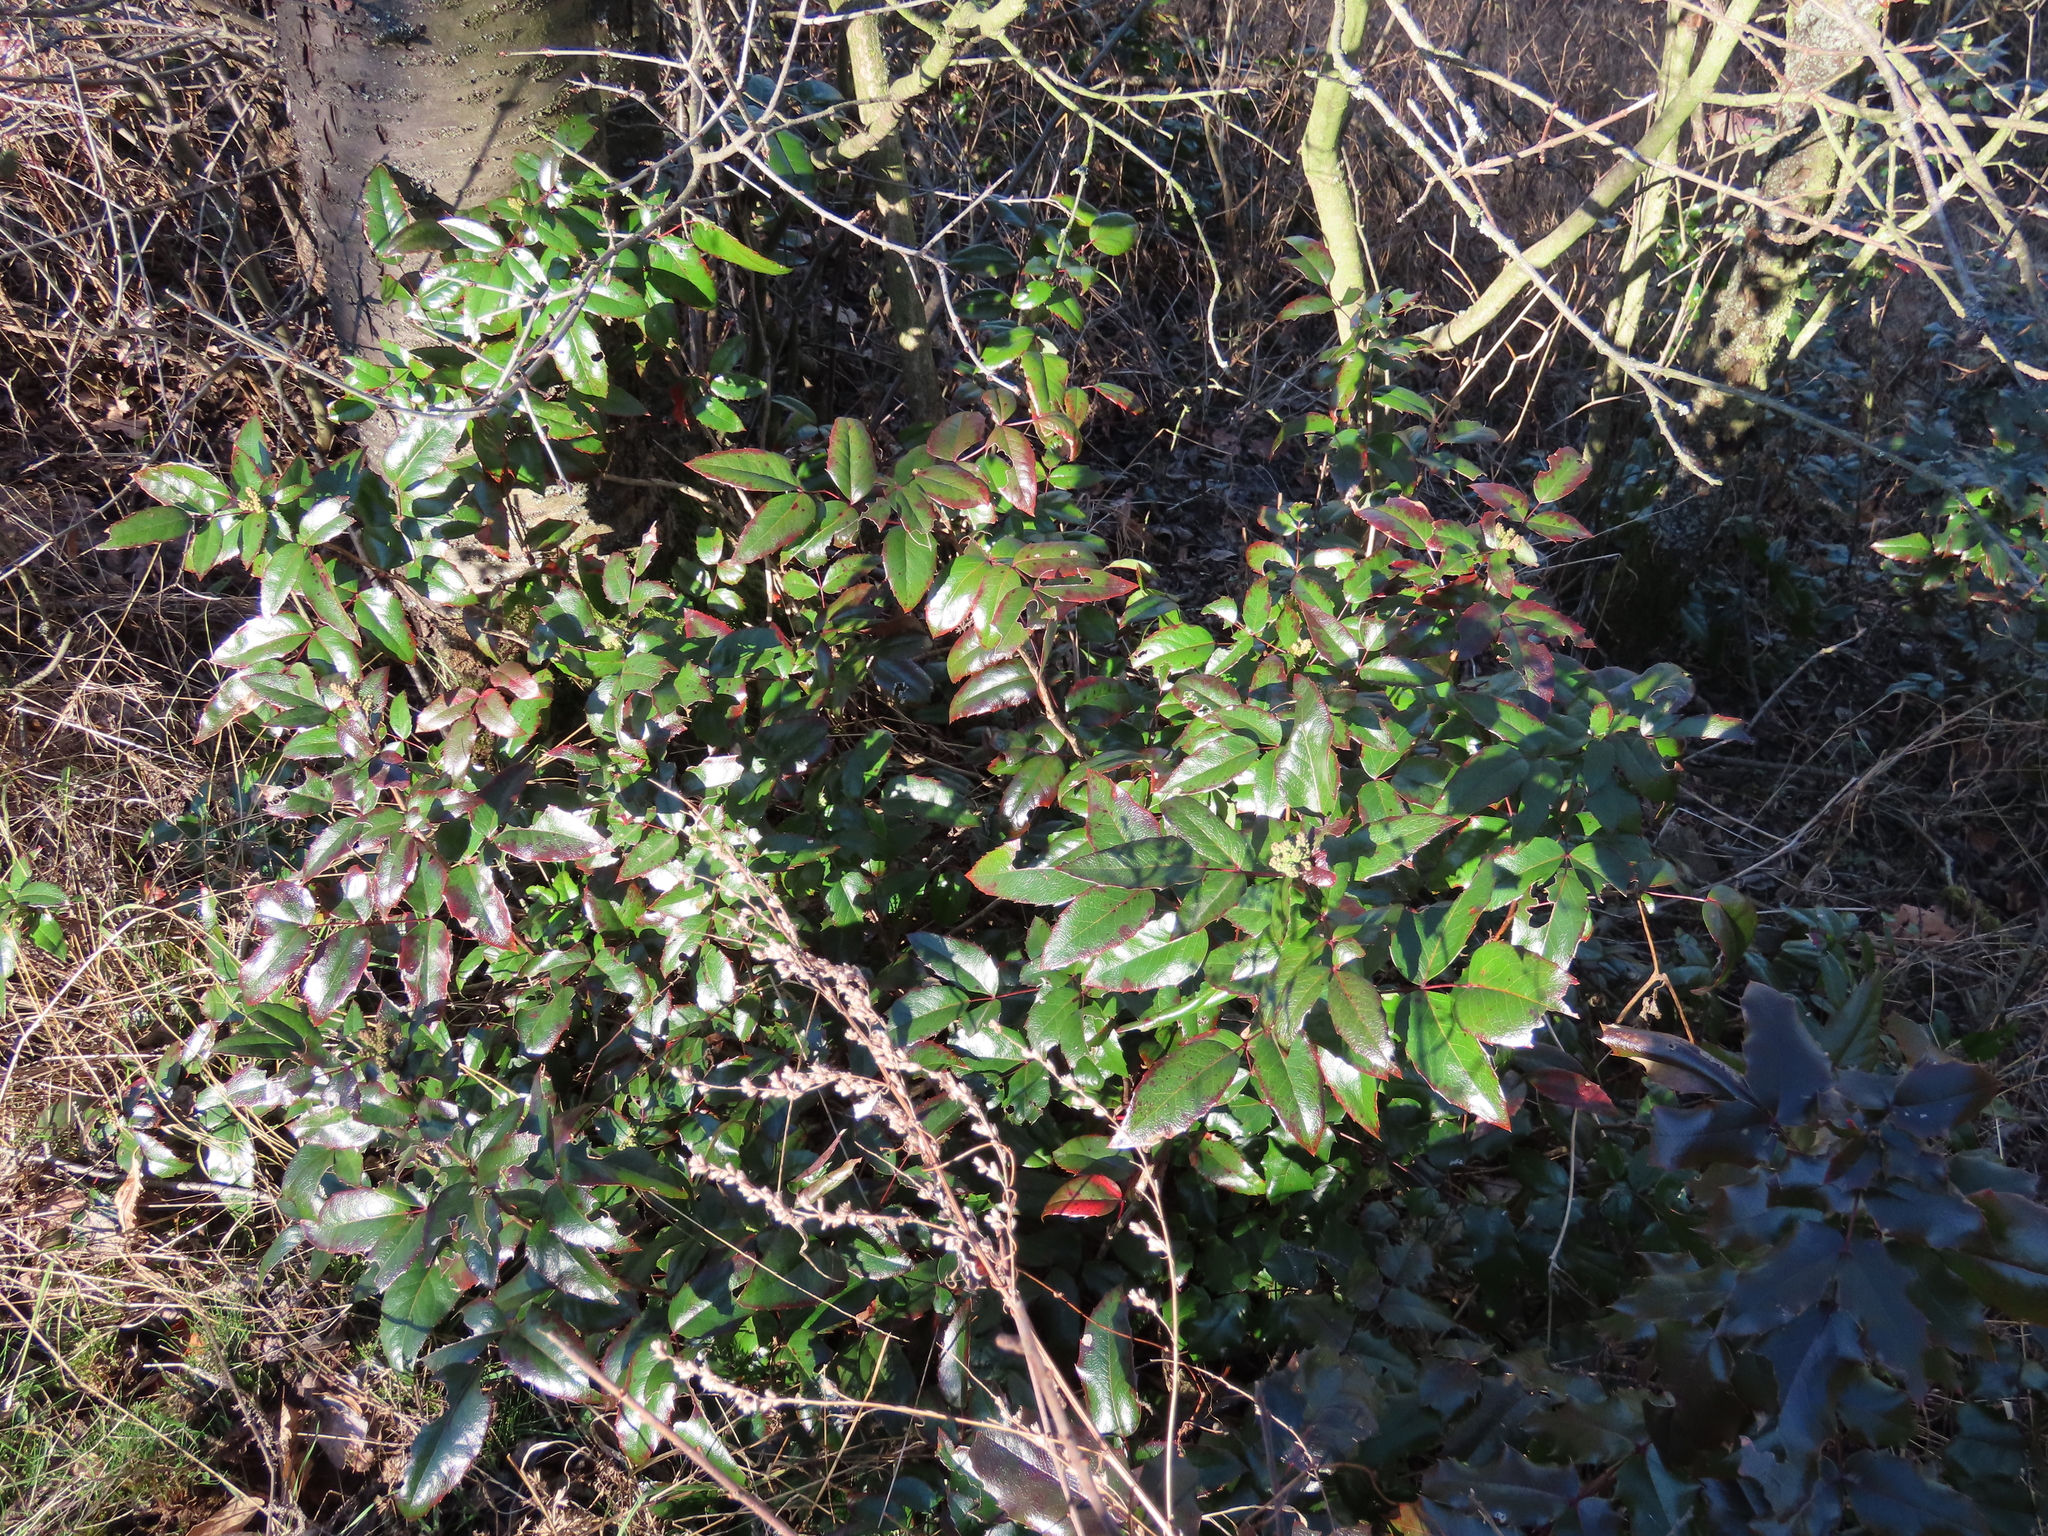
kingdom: Plantae
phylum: Tracheophyta
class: Magnoliopsida
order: Ranunculales
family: Berberidaceae
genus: Mahonia
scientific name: Mahonia aquifolium
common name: Oregon-grape
